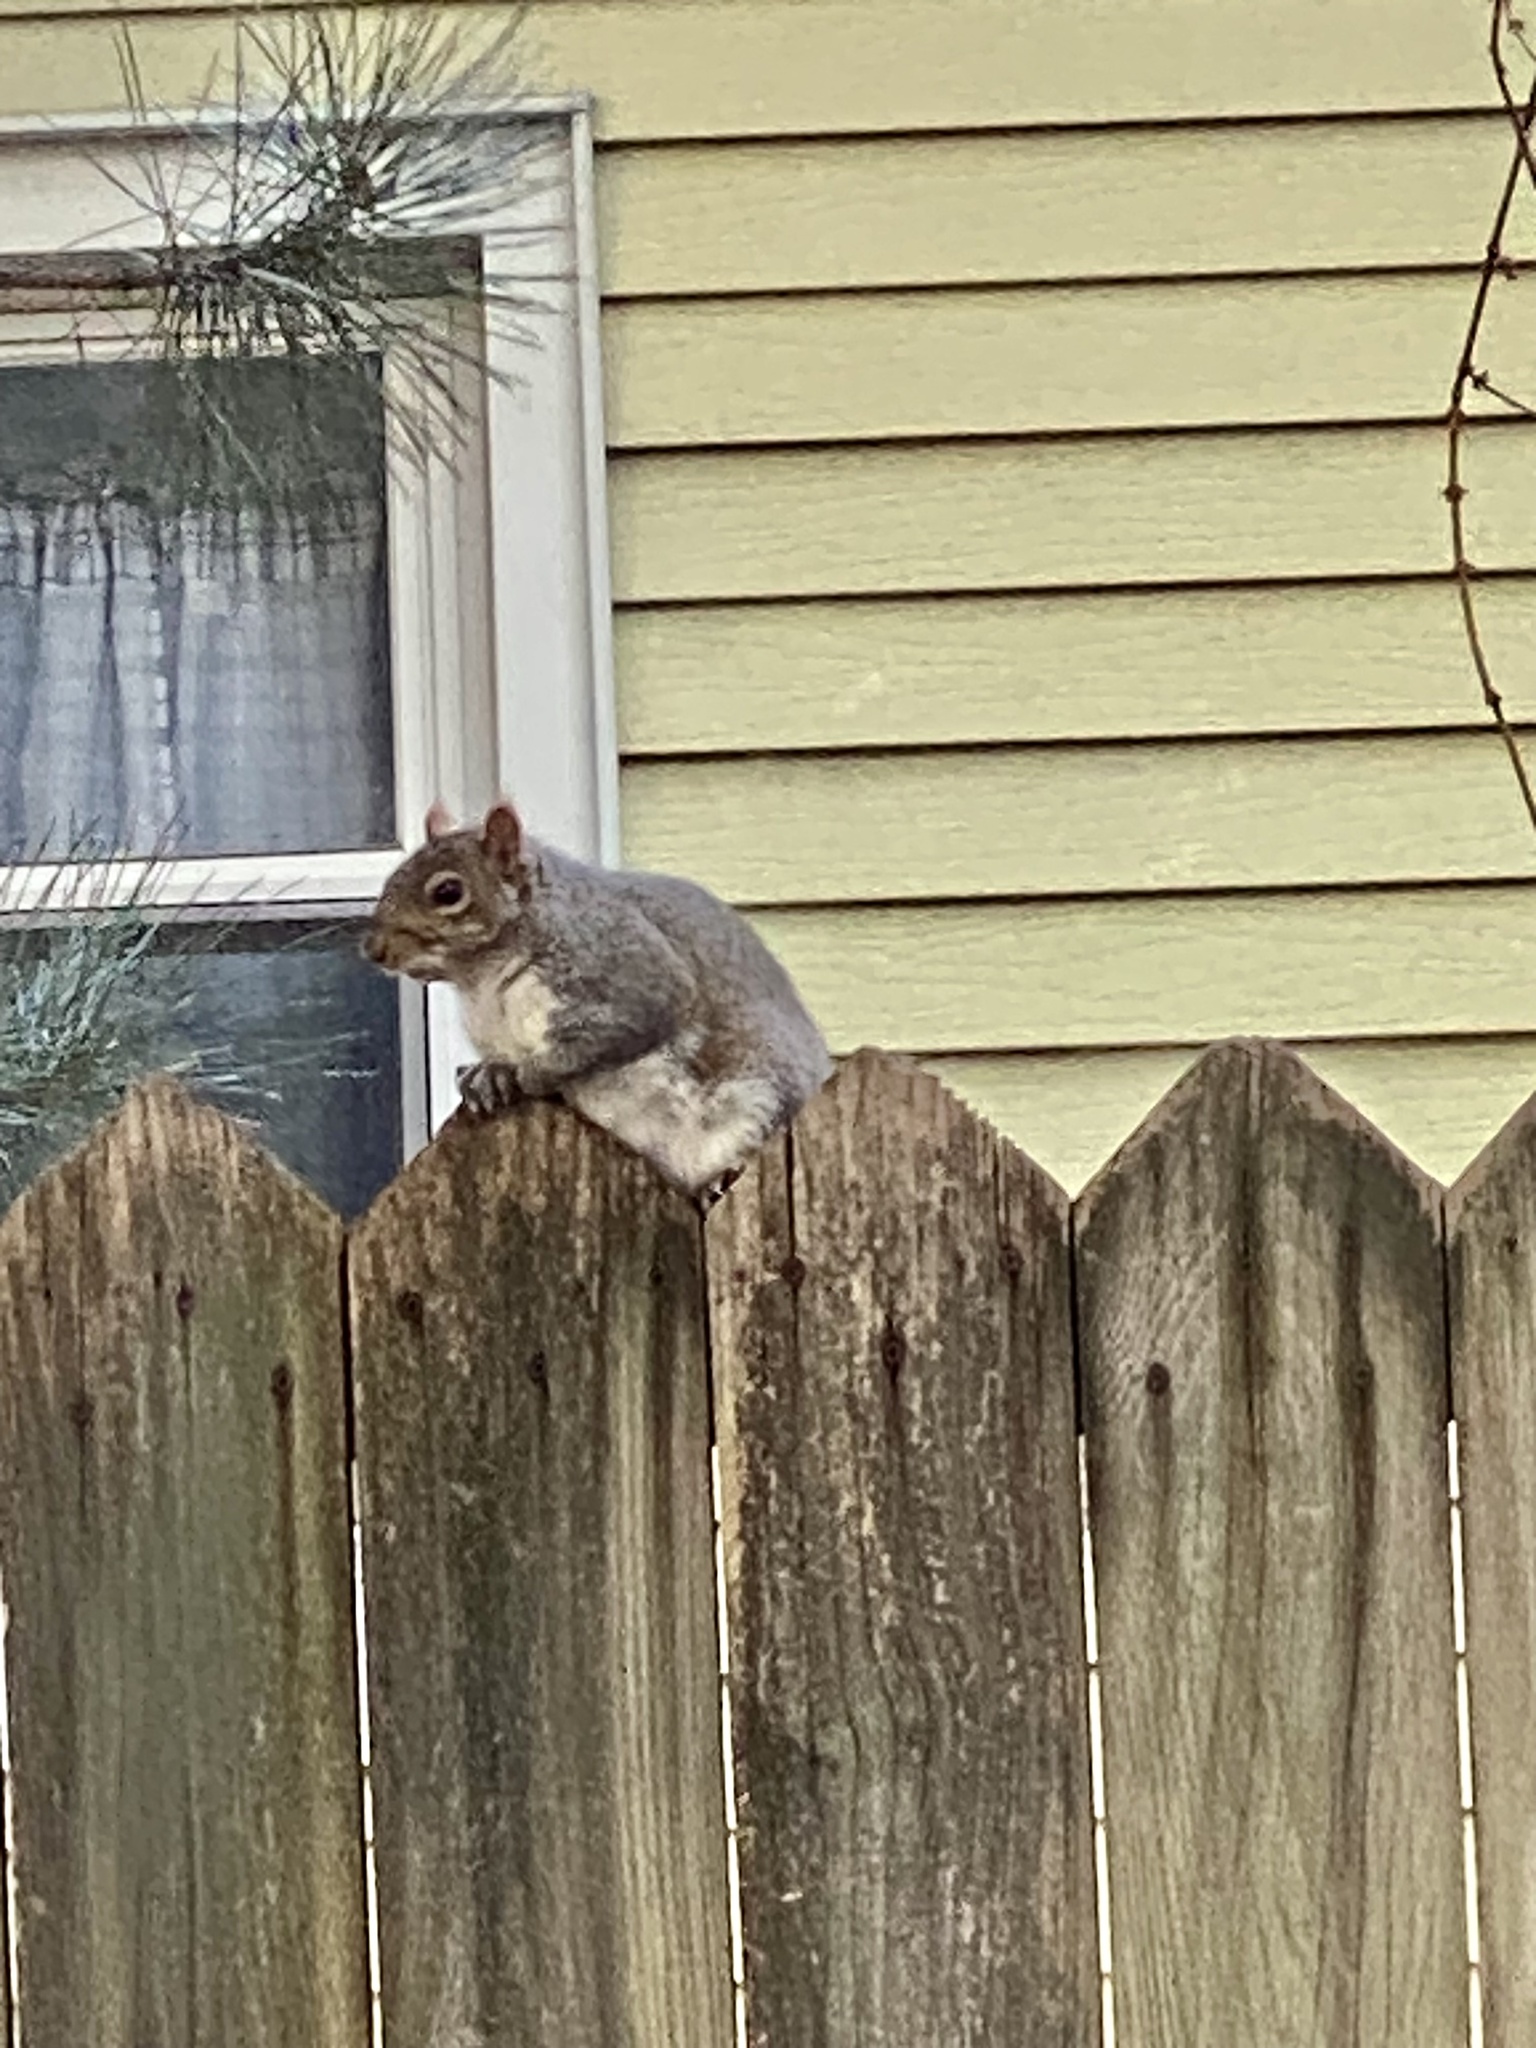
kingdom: Animalia
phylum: Chordata
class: Mammalia
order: Rodentia
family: Sciuridae
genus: Sciurus
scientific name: Sciurus carolinensis
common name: Eastern gray squirrel
